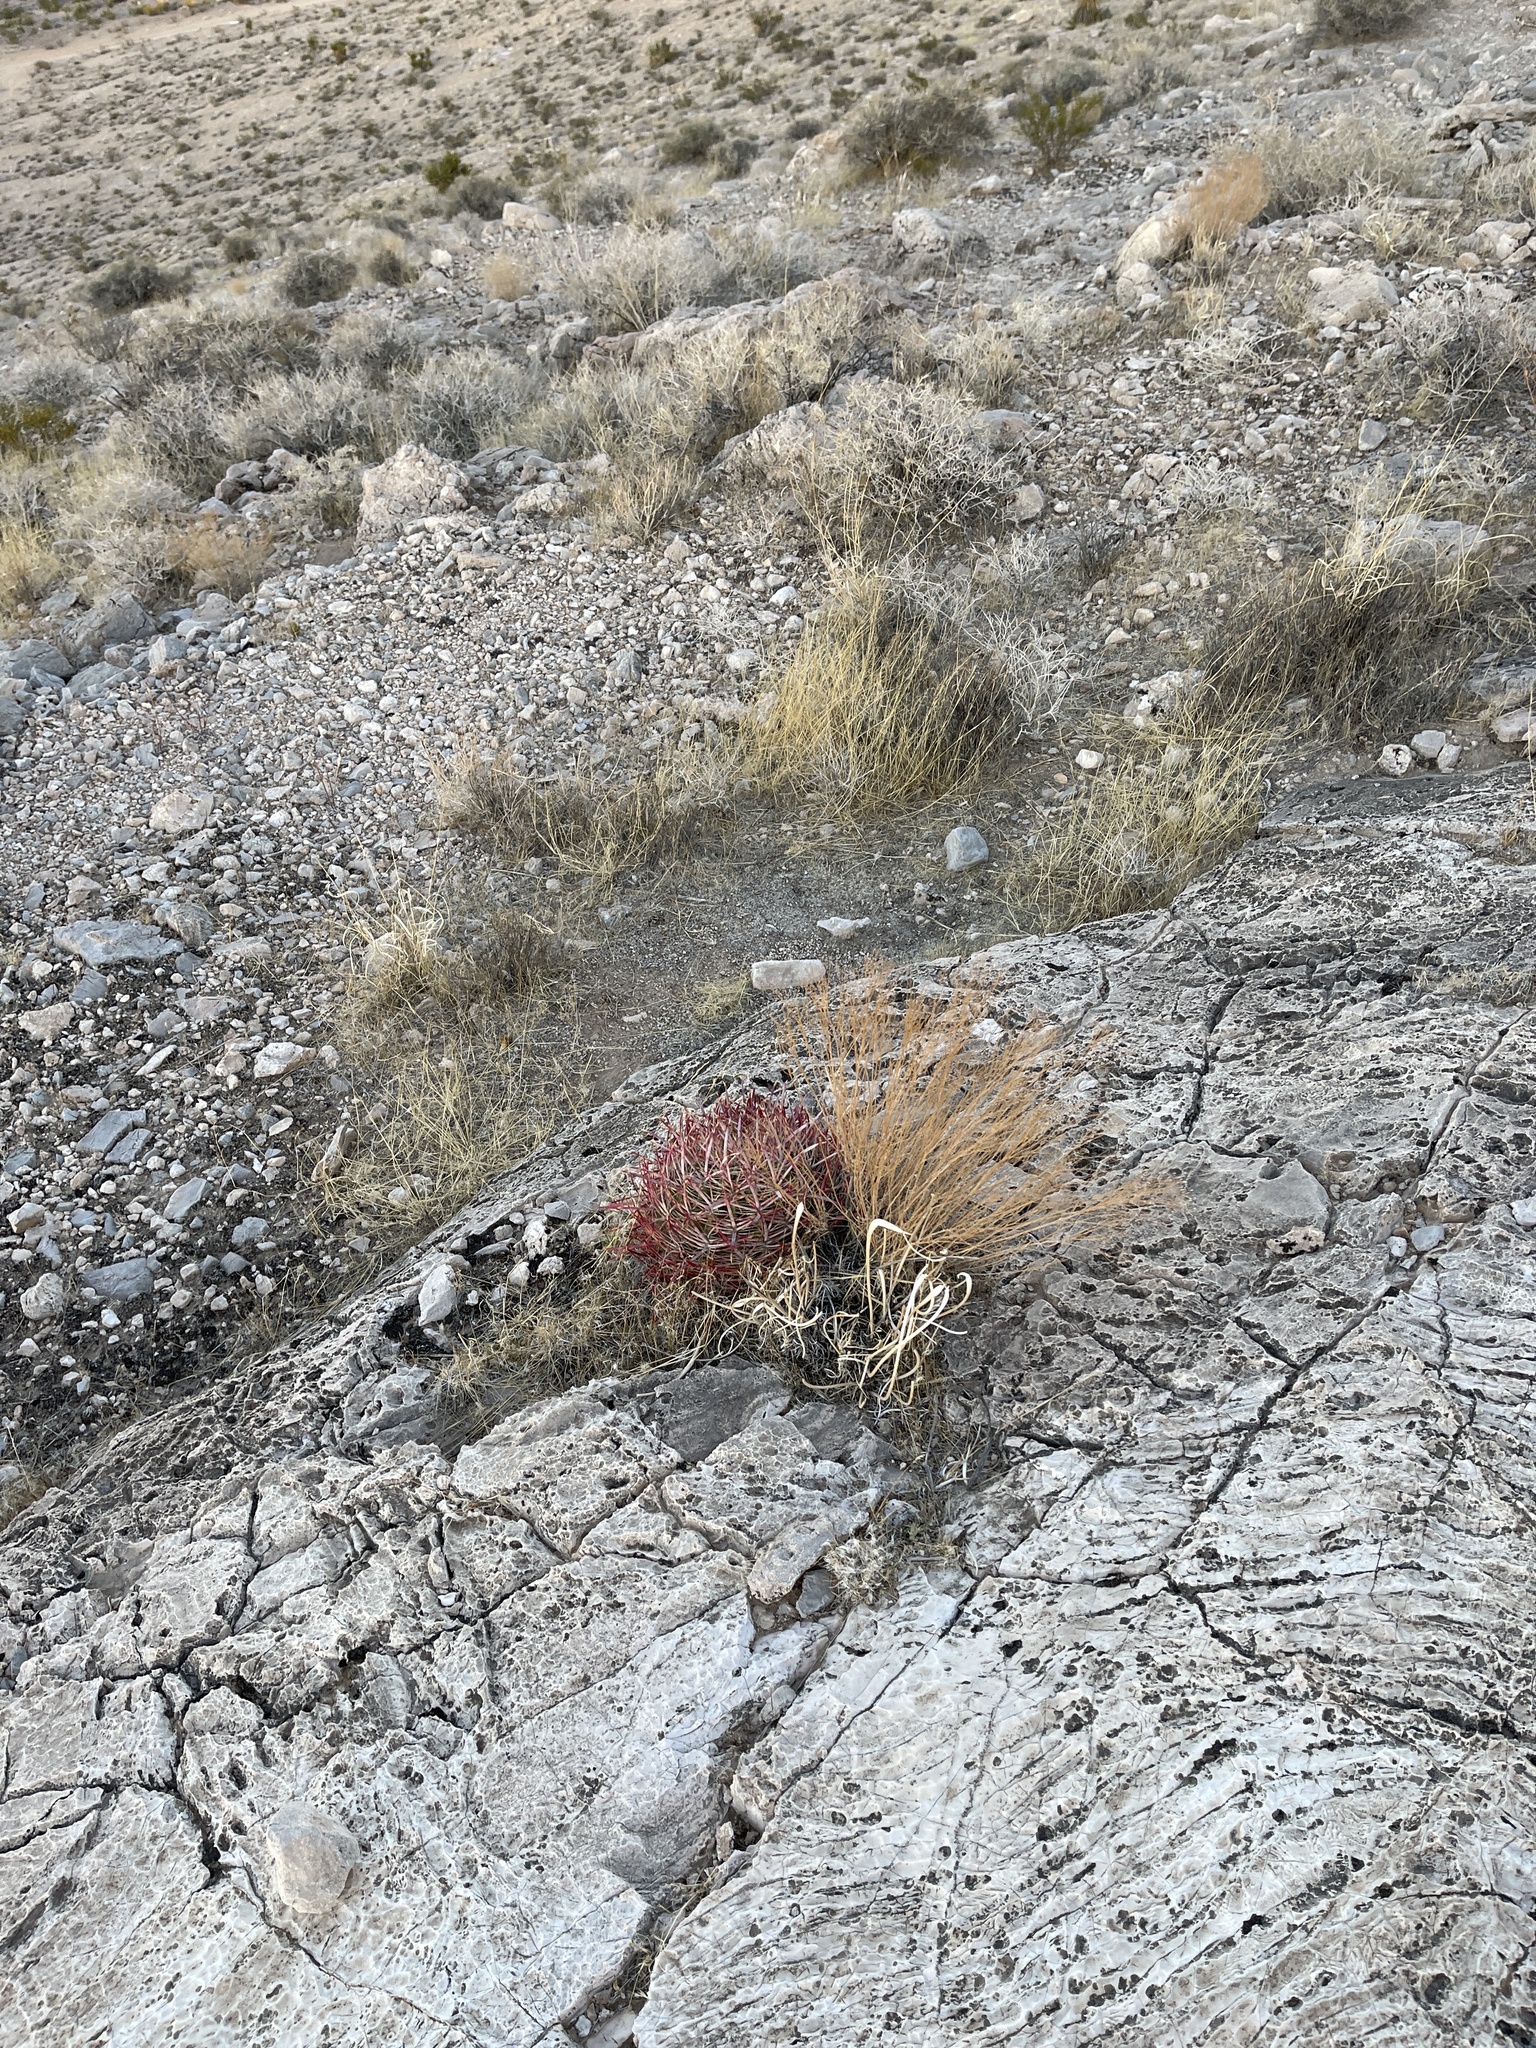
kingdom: Plantae
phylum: Tracheophyta
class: Magnoliopsida
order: Caryophyllales
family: Cactaceae
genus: Ferocactus
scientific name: Ferocactus cylindraceus
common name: California barrel cactus
